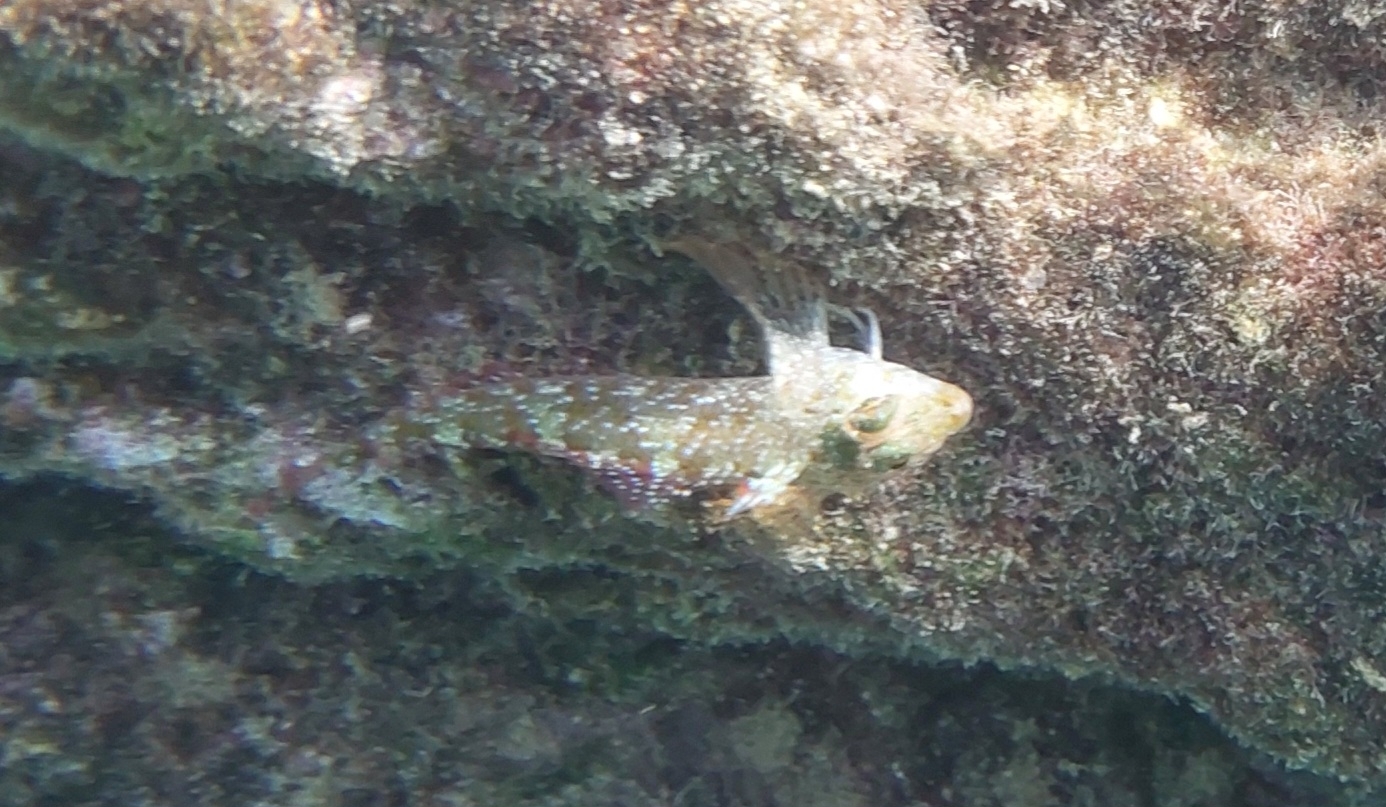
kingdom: Animalia
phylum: Chordata
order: Perciformes
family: Tripterygiidae
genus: Tripterygion
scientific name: Tripterygion tripteronotum
